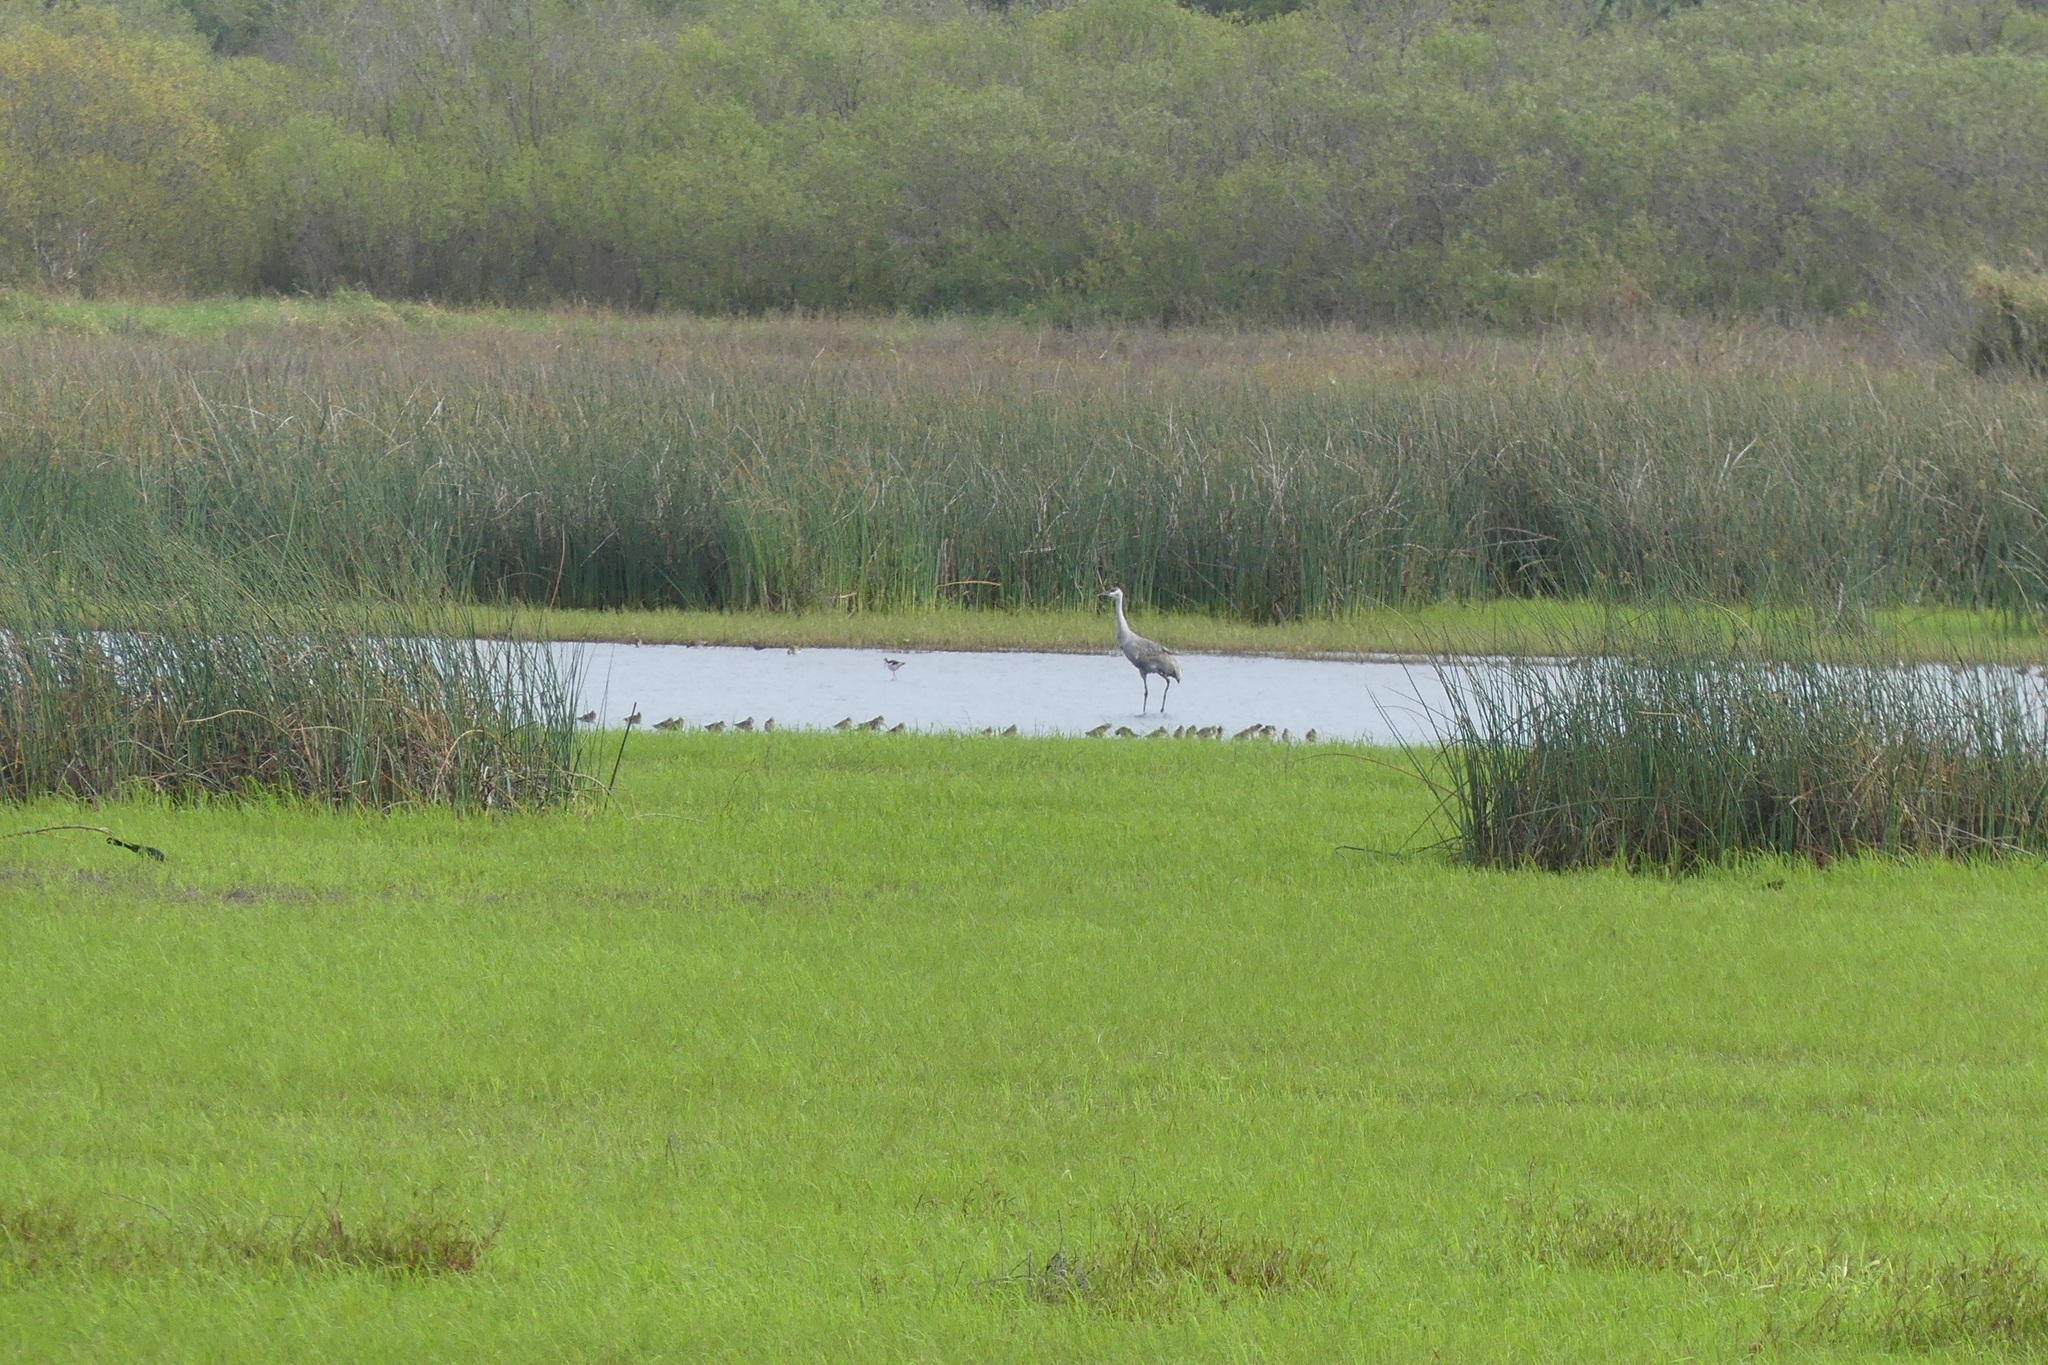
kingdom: Animalia
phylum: Chordata
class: Aves
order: Gruiformes
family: Gruidae
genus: Grus
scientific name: Grus canadensis
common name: Sandhill crane
